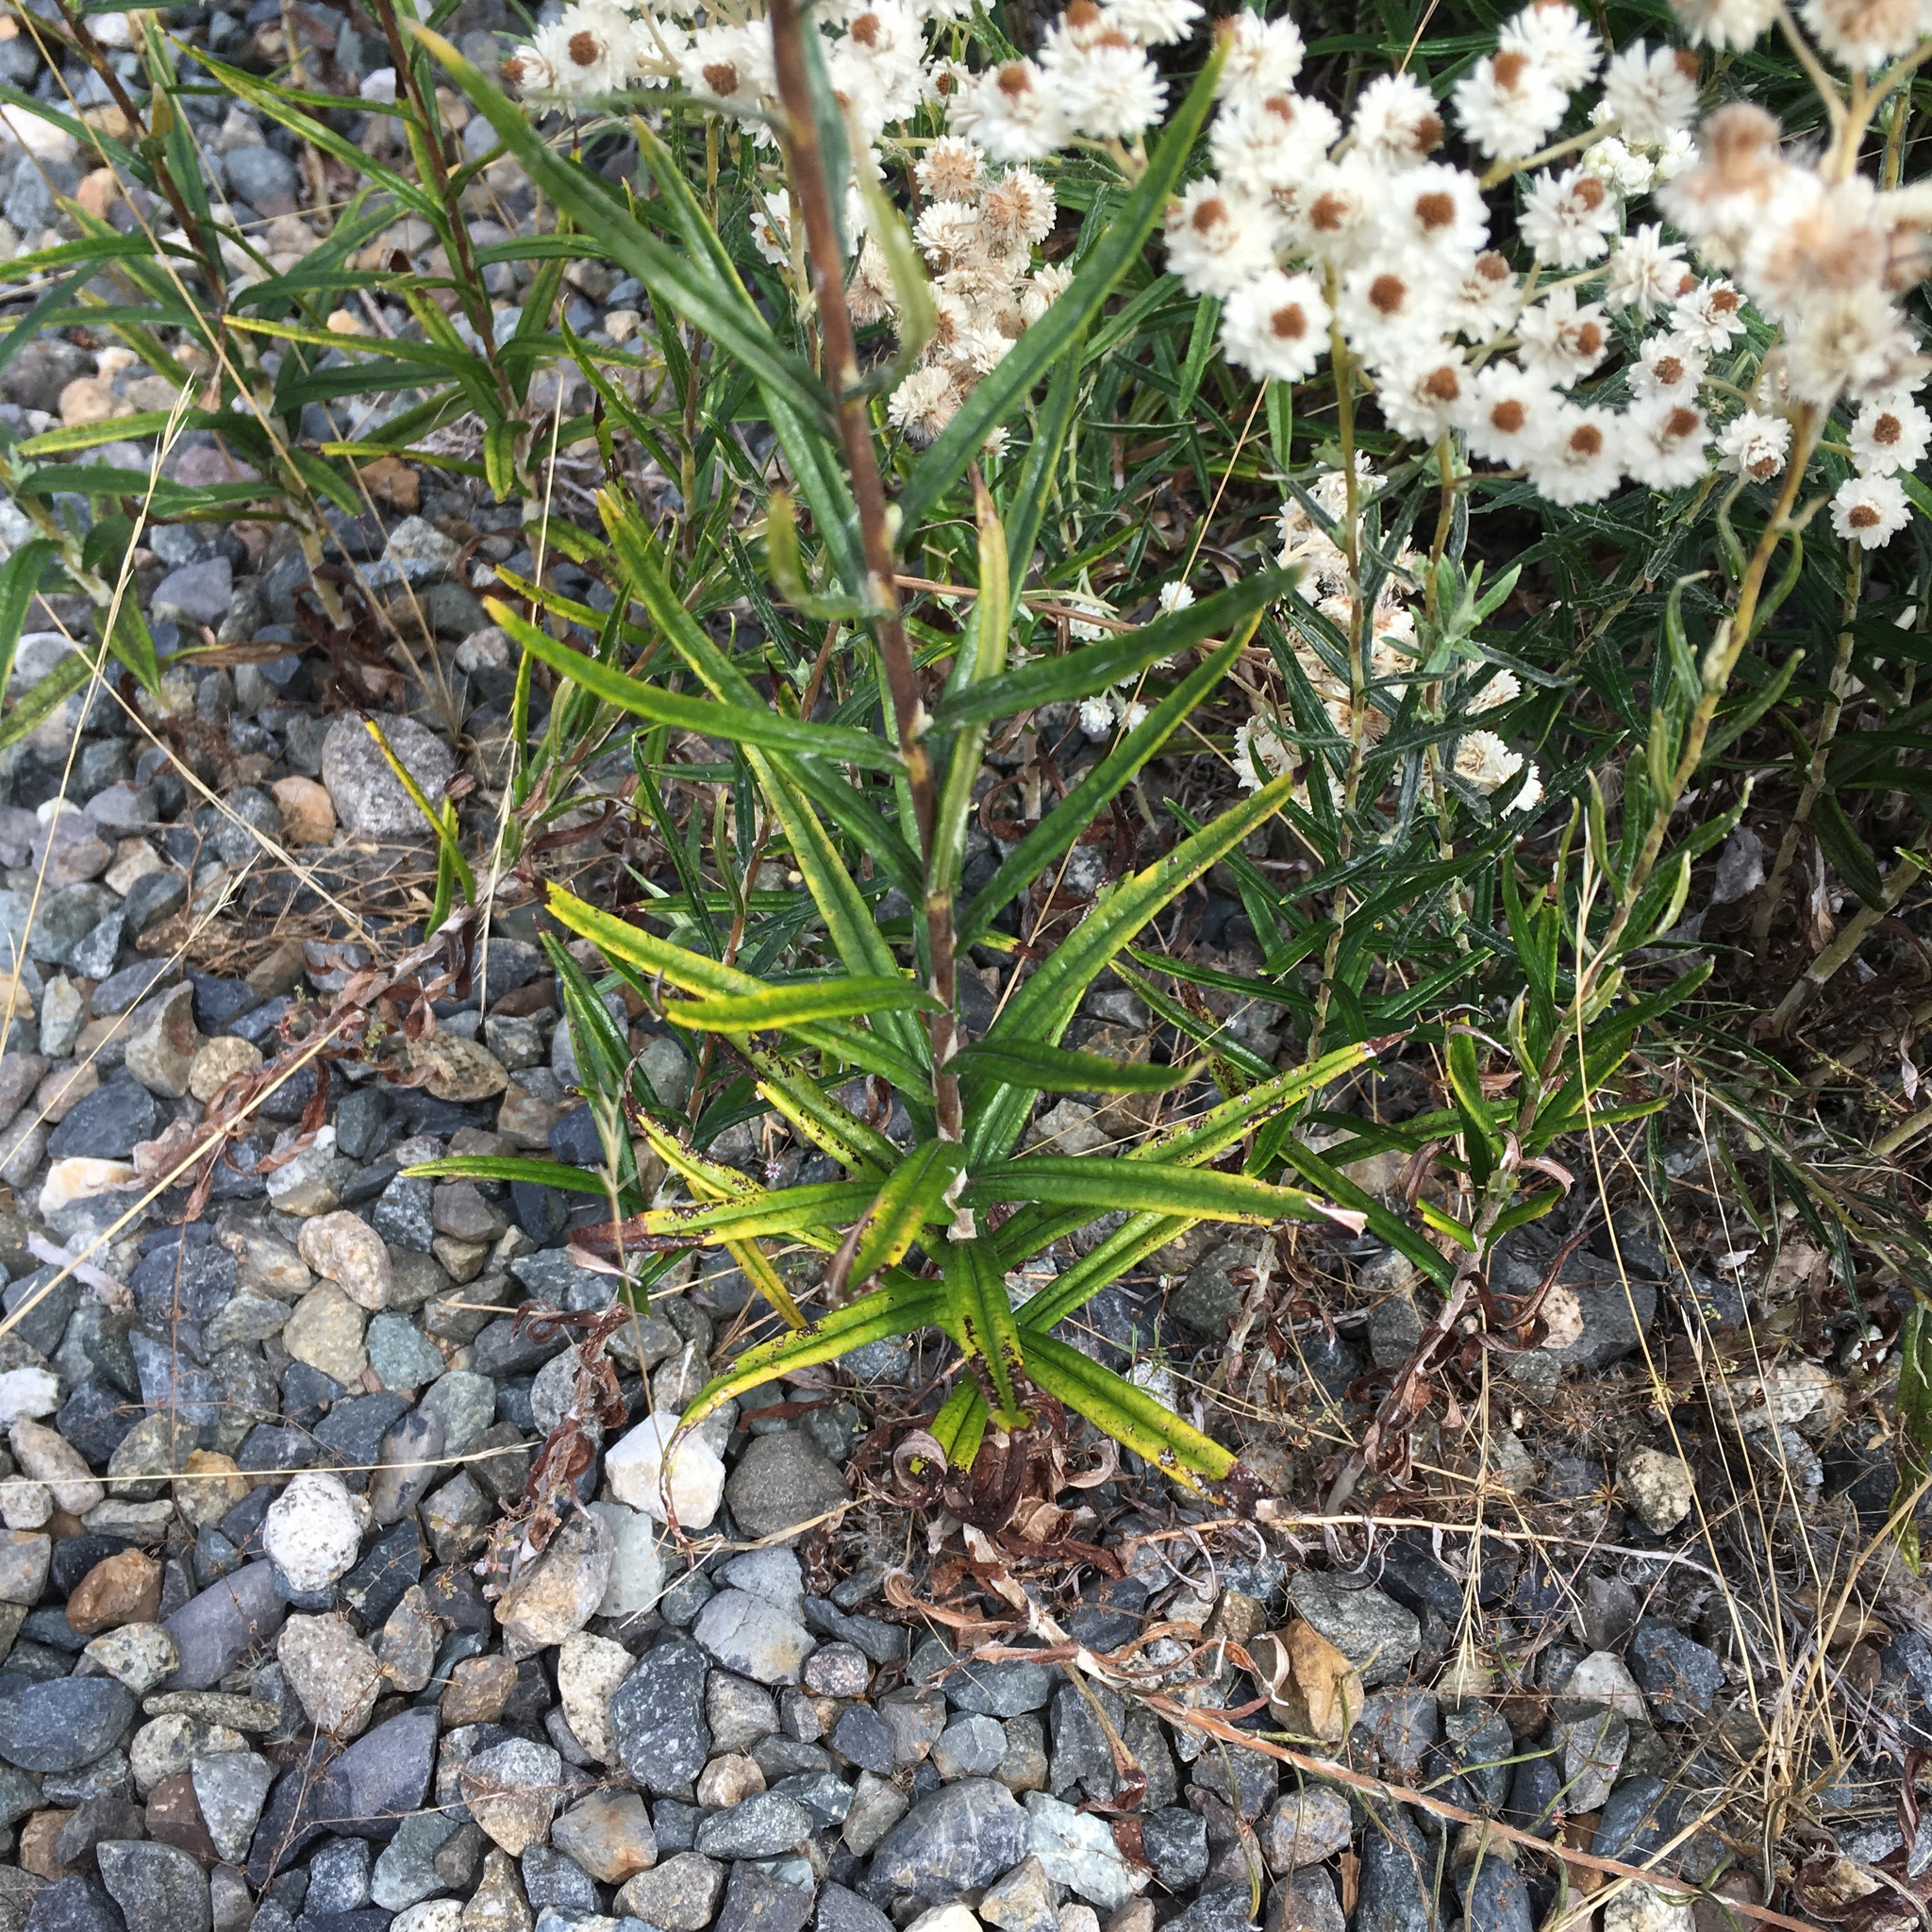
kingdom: Plantae
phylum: Tracheophyta
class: Magnoliopsida
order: Asterales
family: Asteraceae
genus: Anaphalis
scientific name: Anaphalis margaritacea
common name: Pearly everlasting
